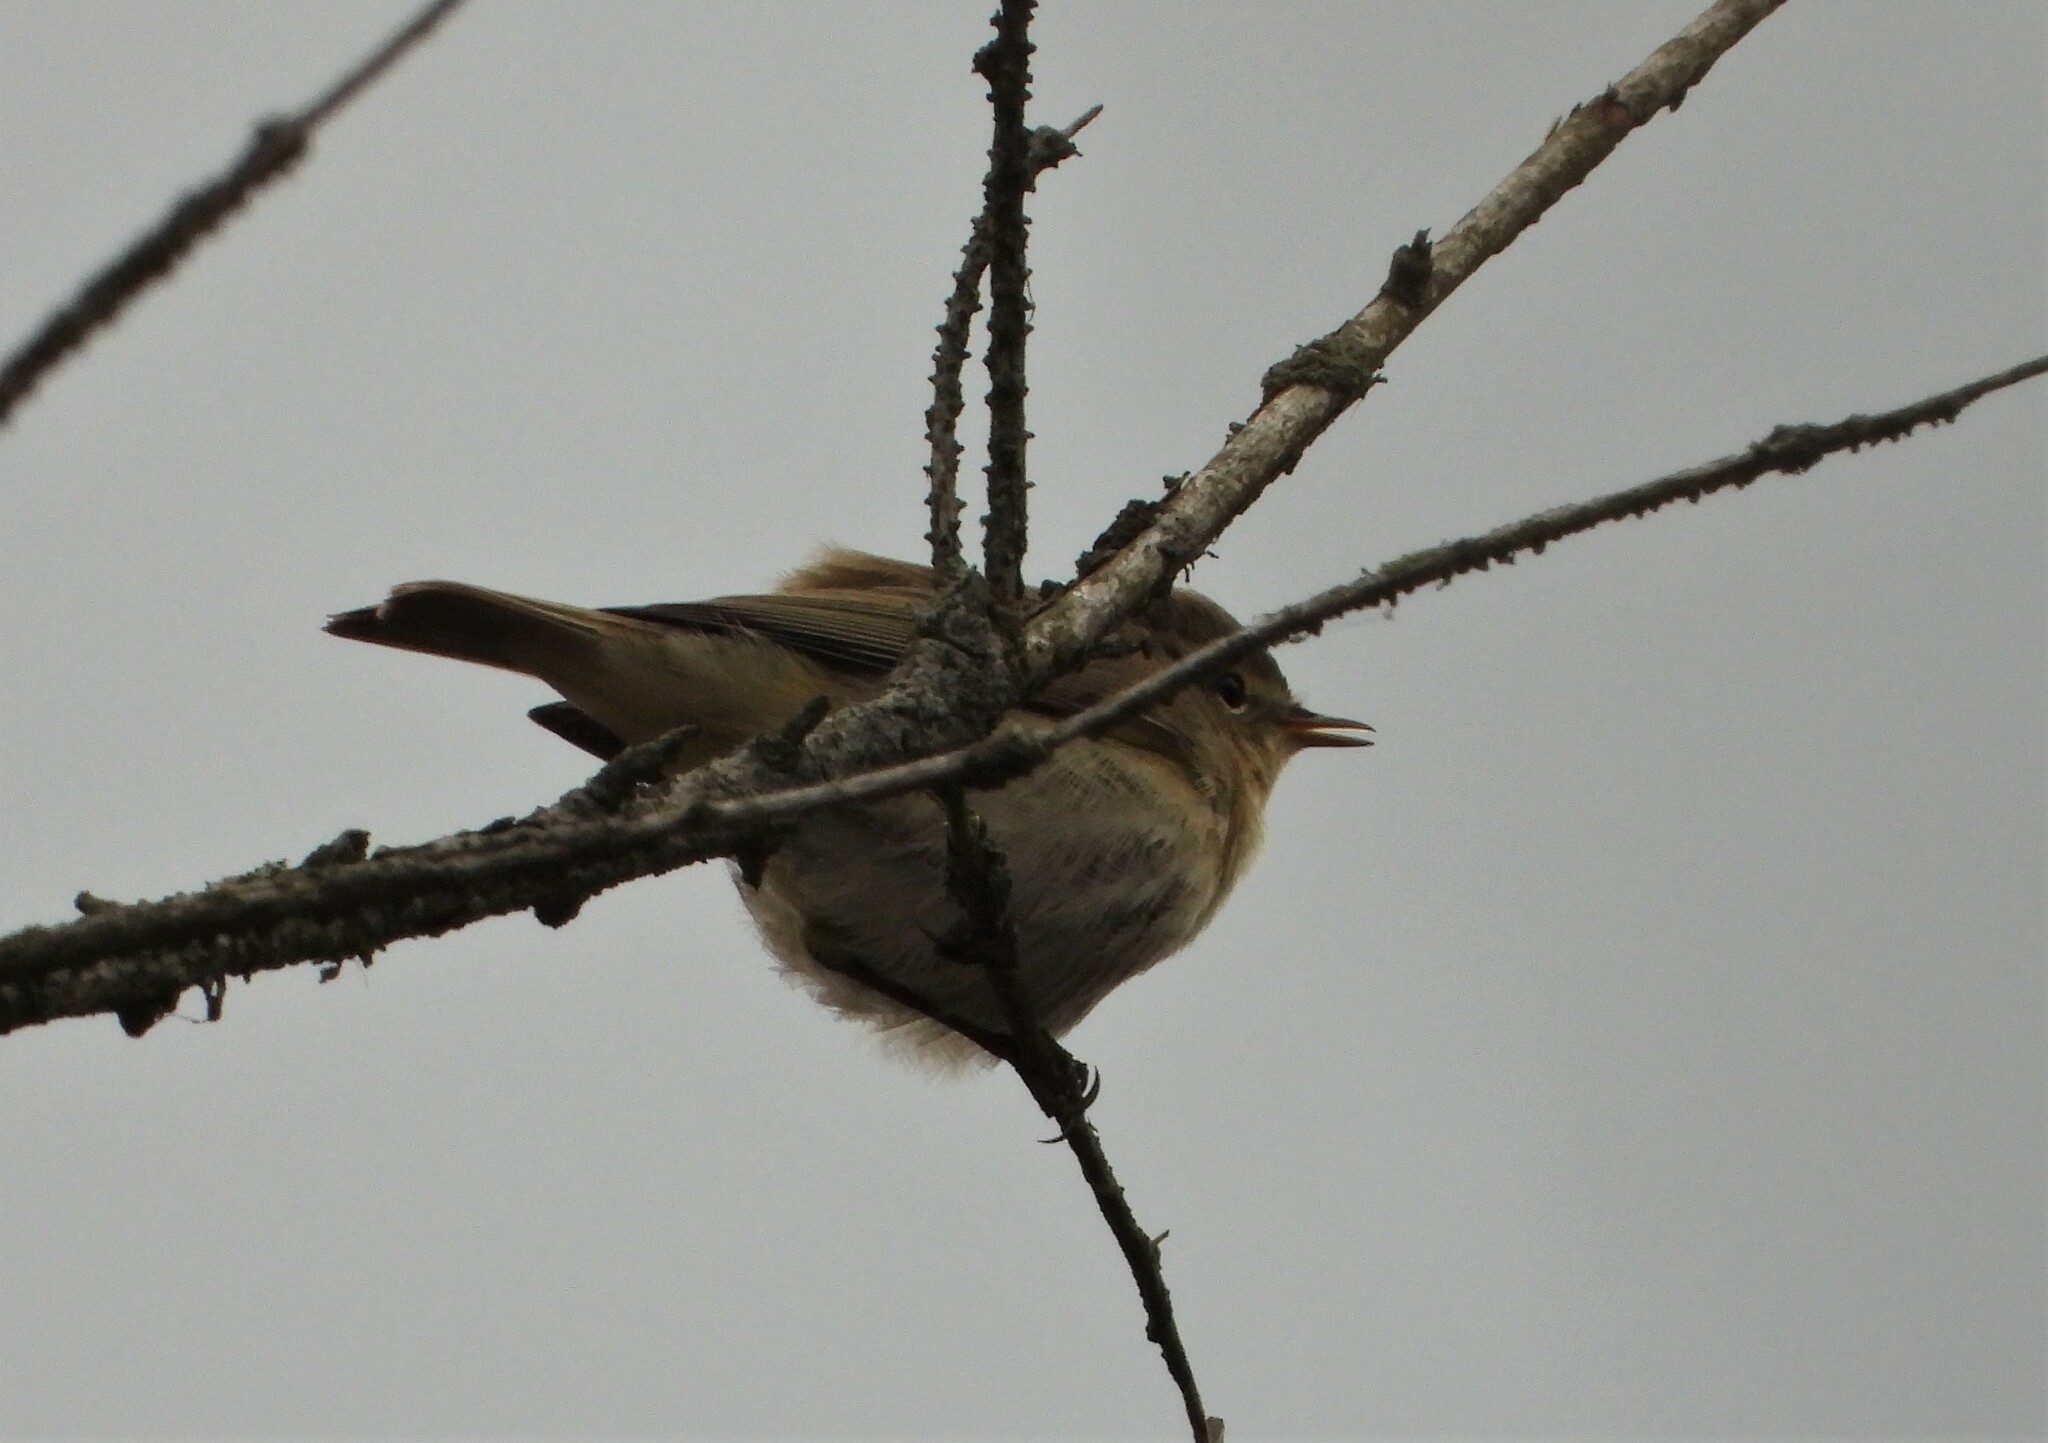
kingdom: Animalia
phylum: Chordata
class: Aves
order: Passeriformes
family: Phylloscopidae
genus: Phylloscopus
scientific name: Phylloscopus collybita
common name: Common chiffchaff
